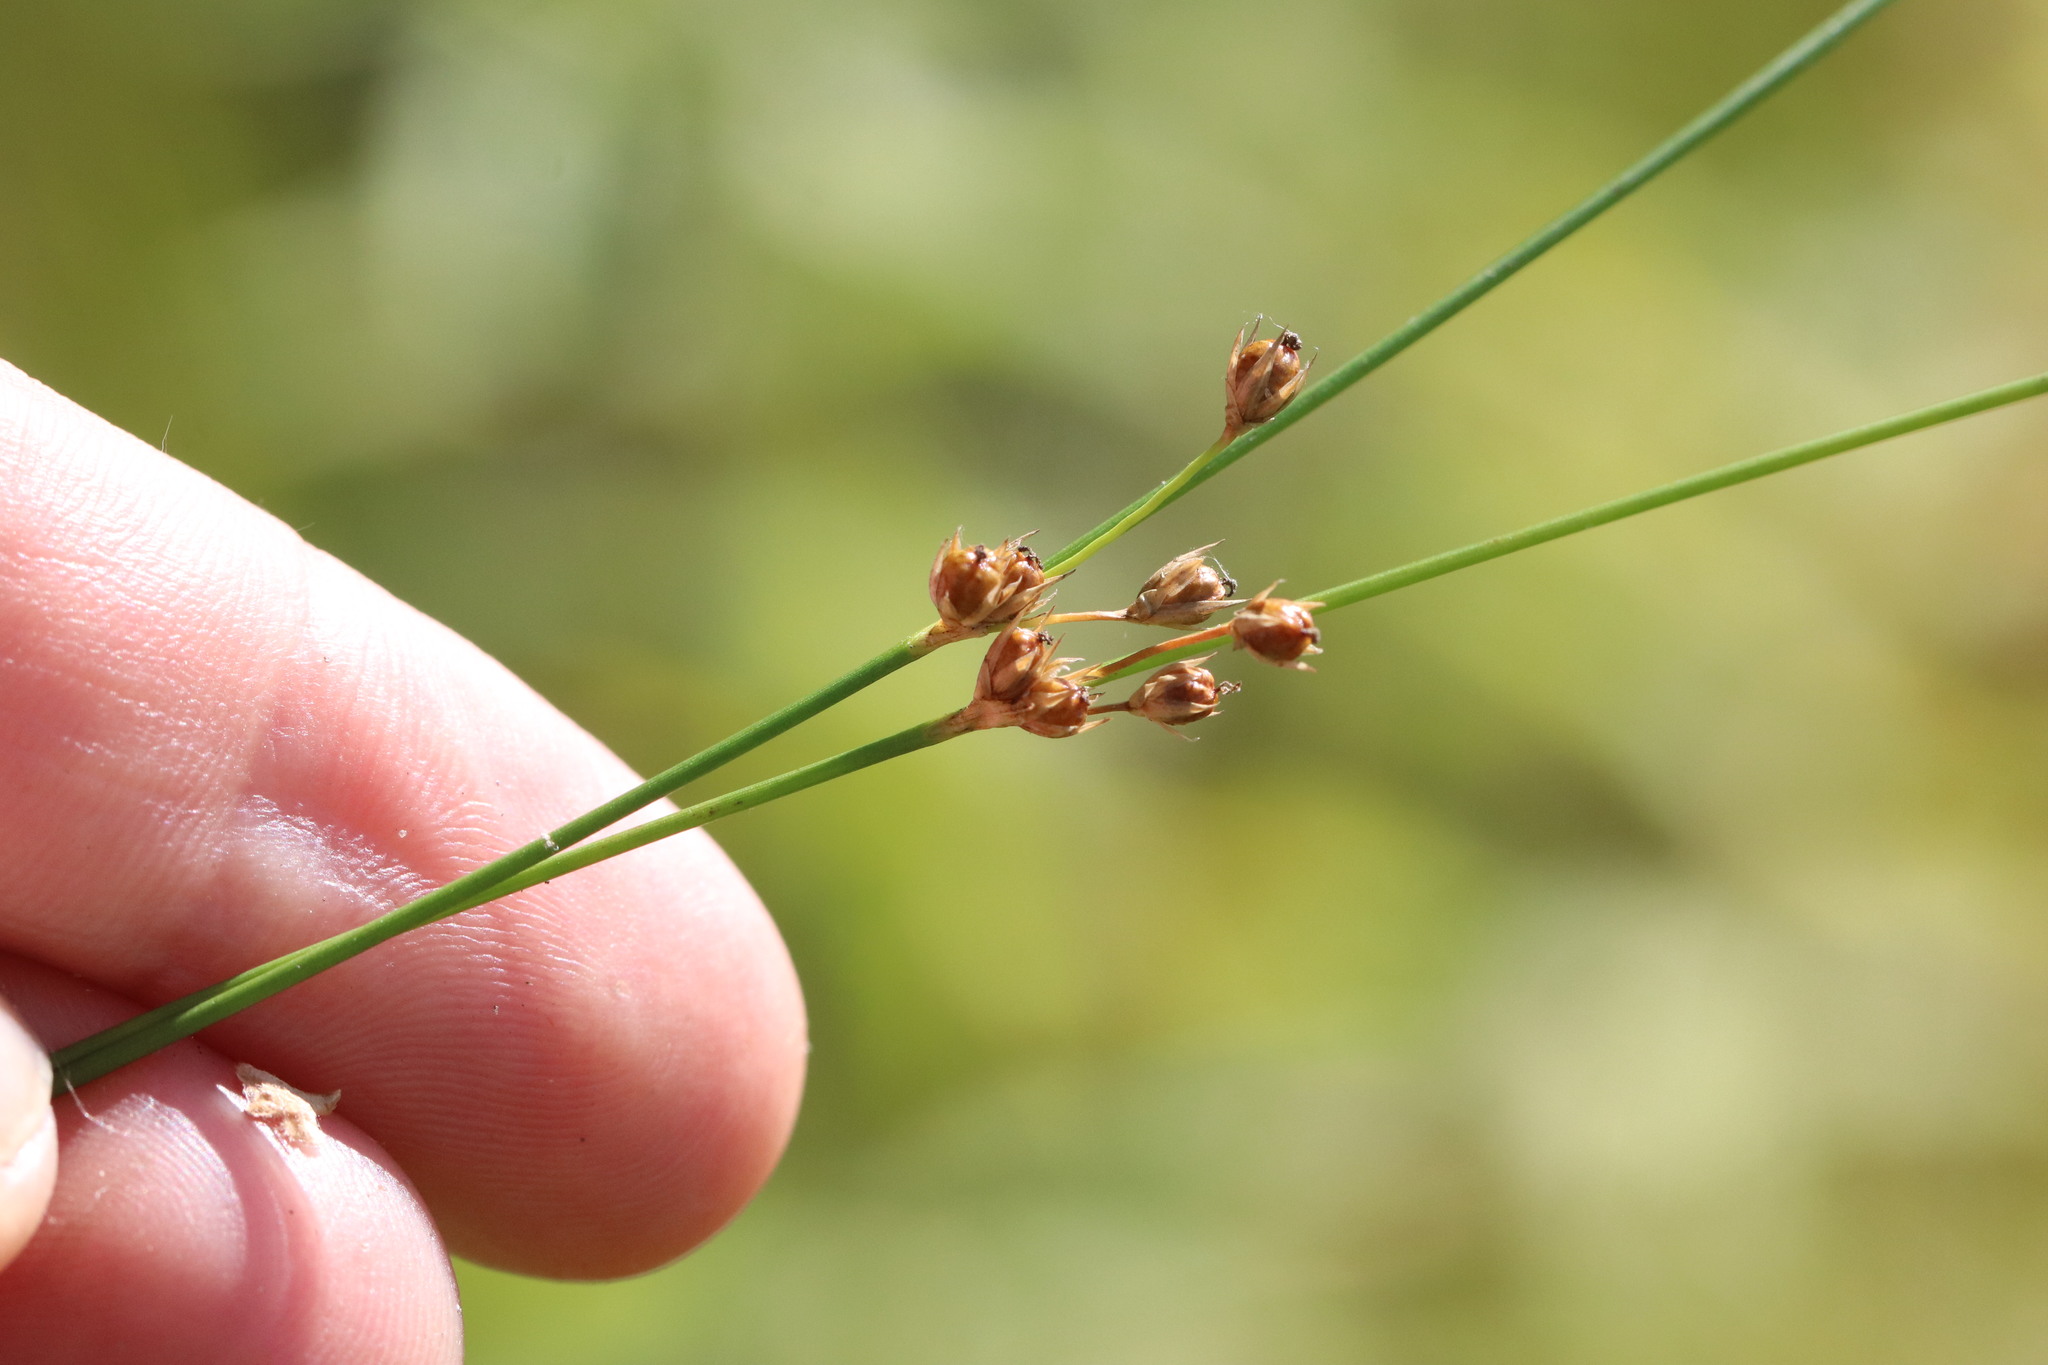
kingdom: Plantae
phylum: Tracheophyta
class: Liliopsida
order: Poales
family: Juncaceae
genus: Juncus
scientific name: Juncus filiformis
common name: Thread rush
